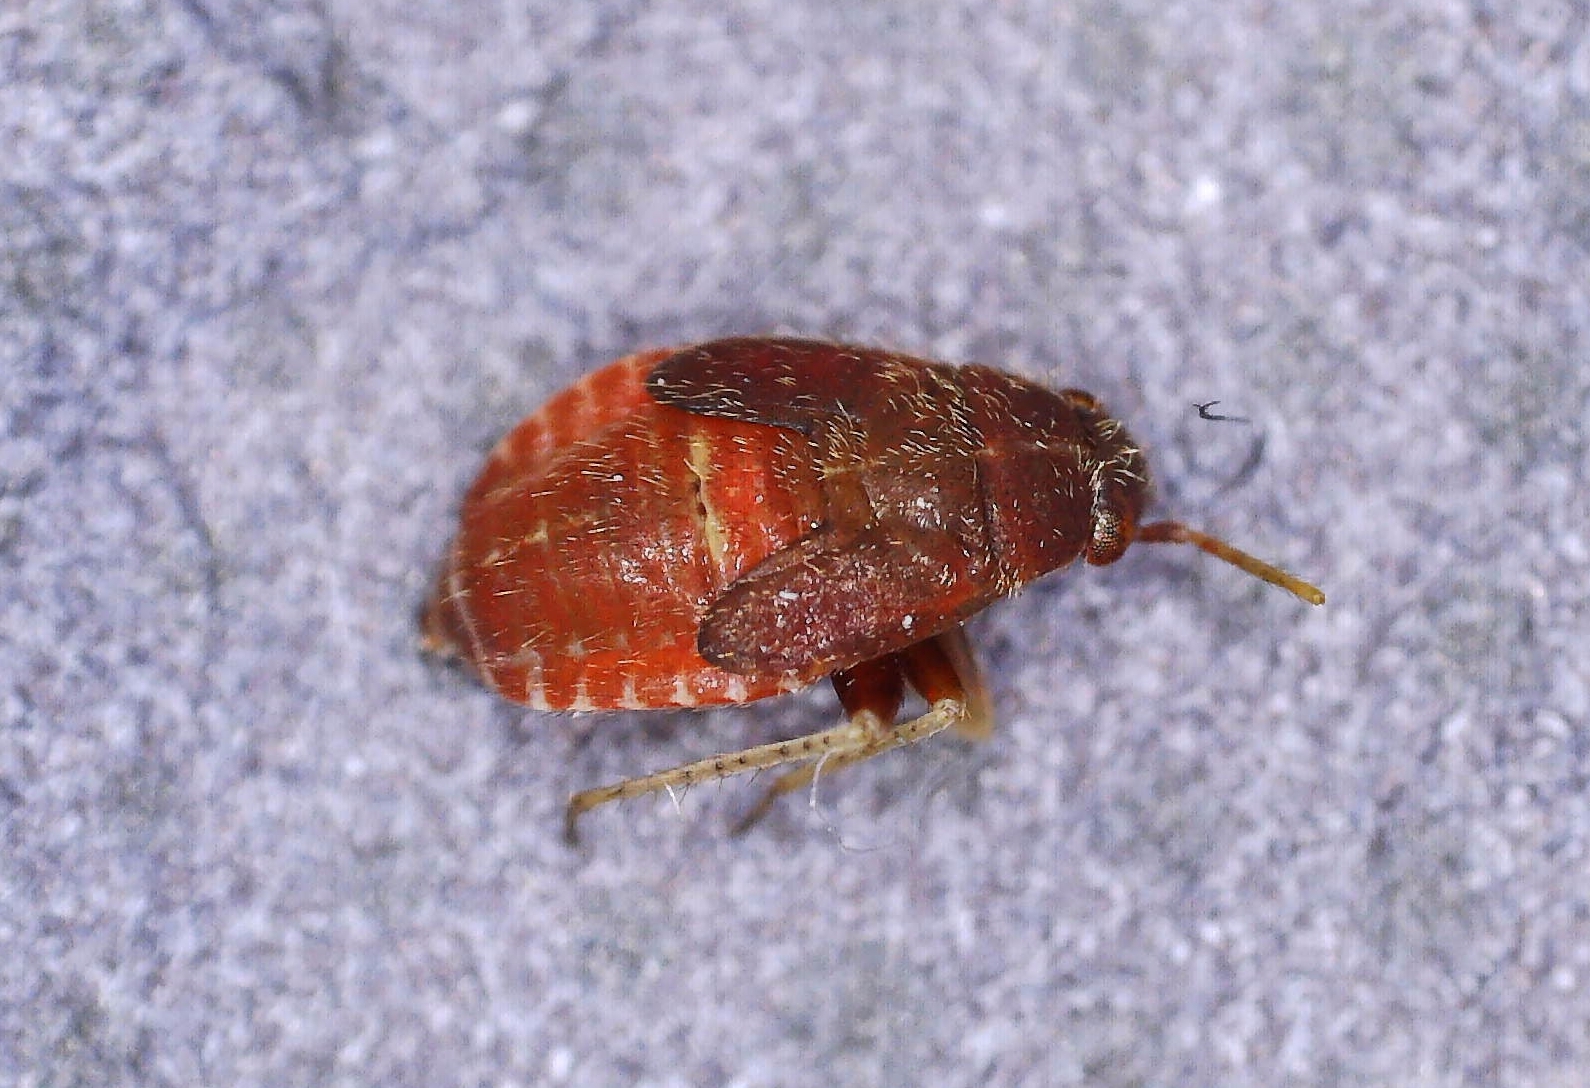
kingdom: Animalia
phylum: Arthropoda
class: Insecta
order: Hemiptera
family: Miridae
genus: Psallus
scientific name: Psallus variabilis
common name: Plant bug
